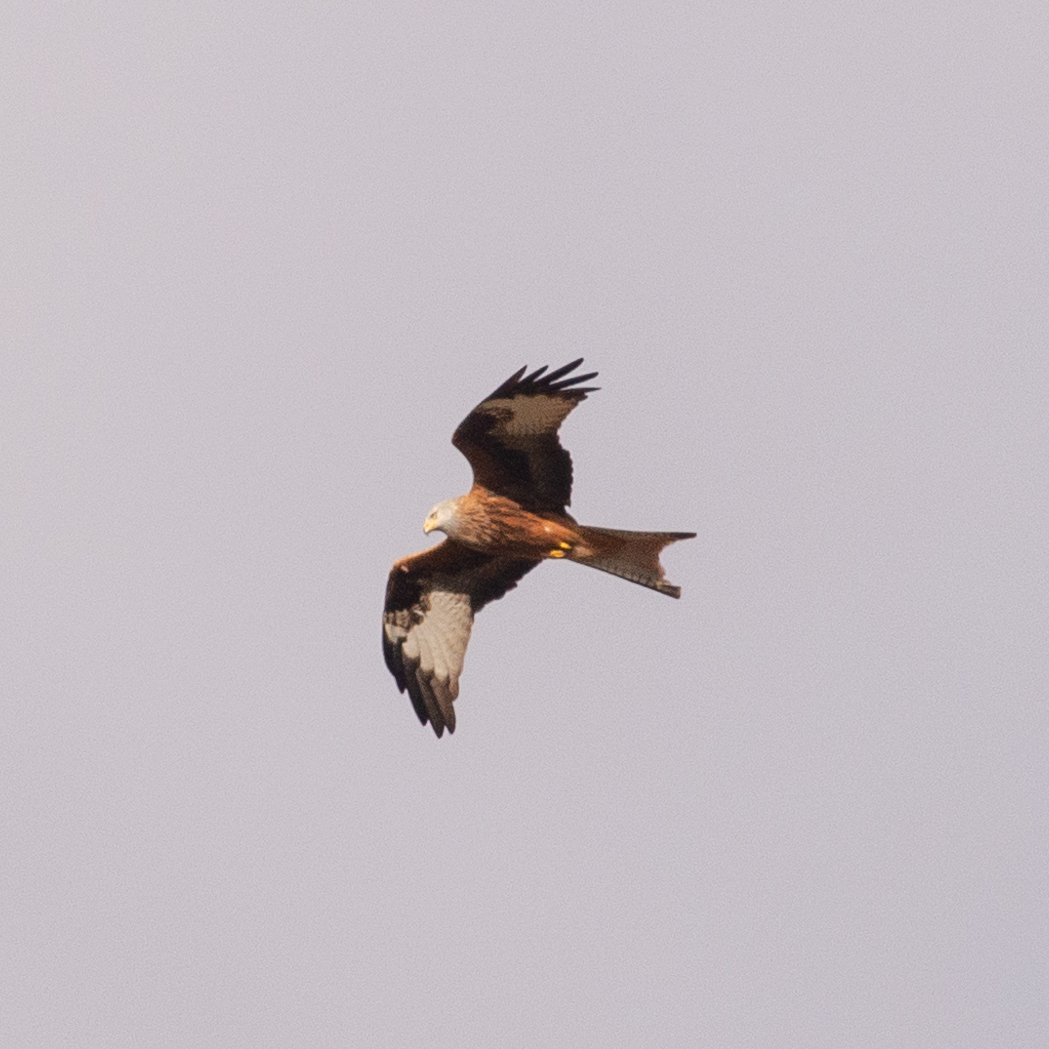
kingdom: Animalia
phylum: Chordata
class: Aves
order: Accipitriformes
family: Accipitridae
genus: Milvus
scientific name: Milvus milvus
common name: Red kite
